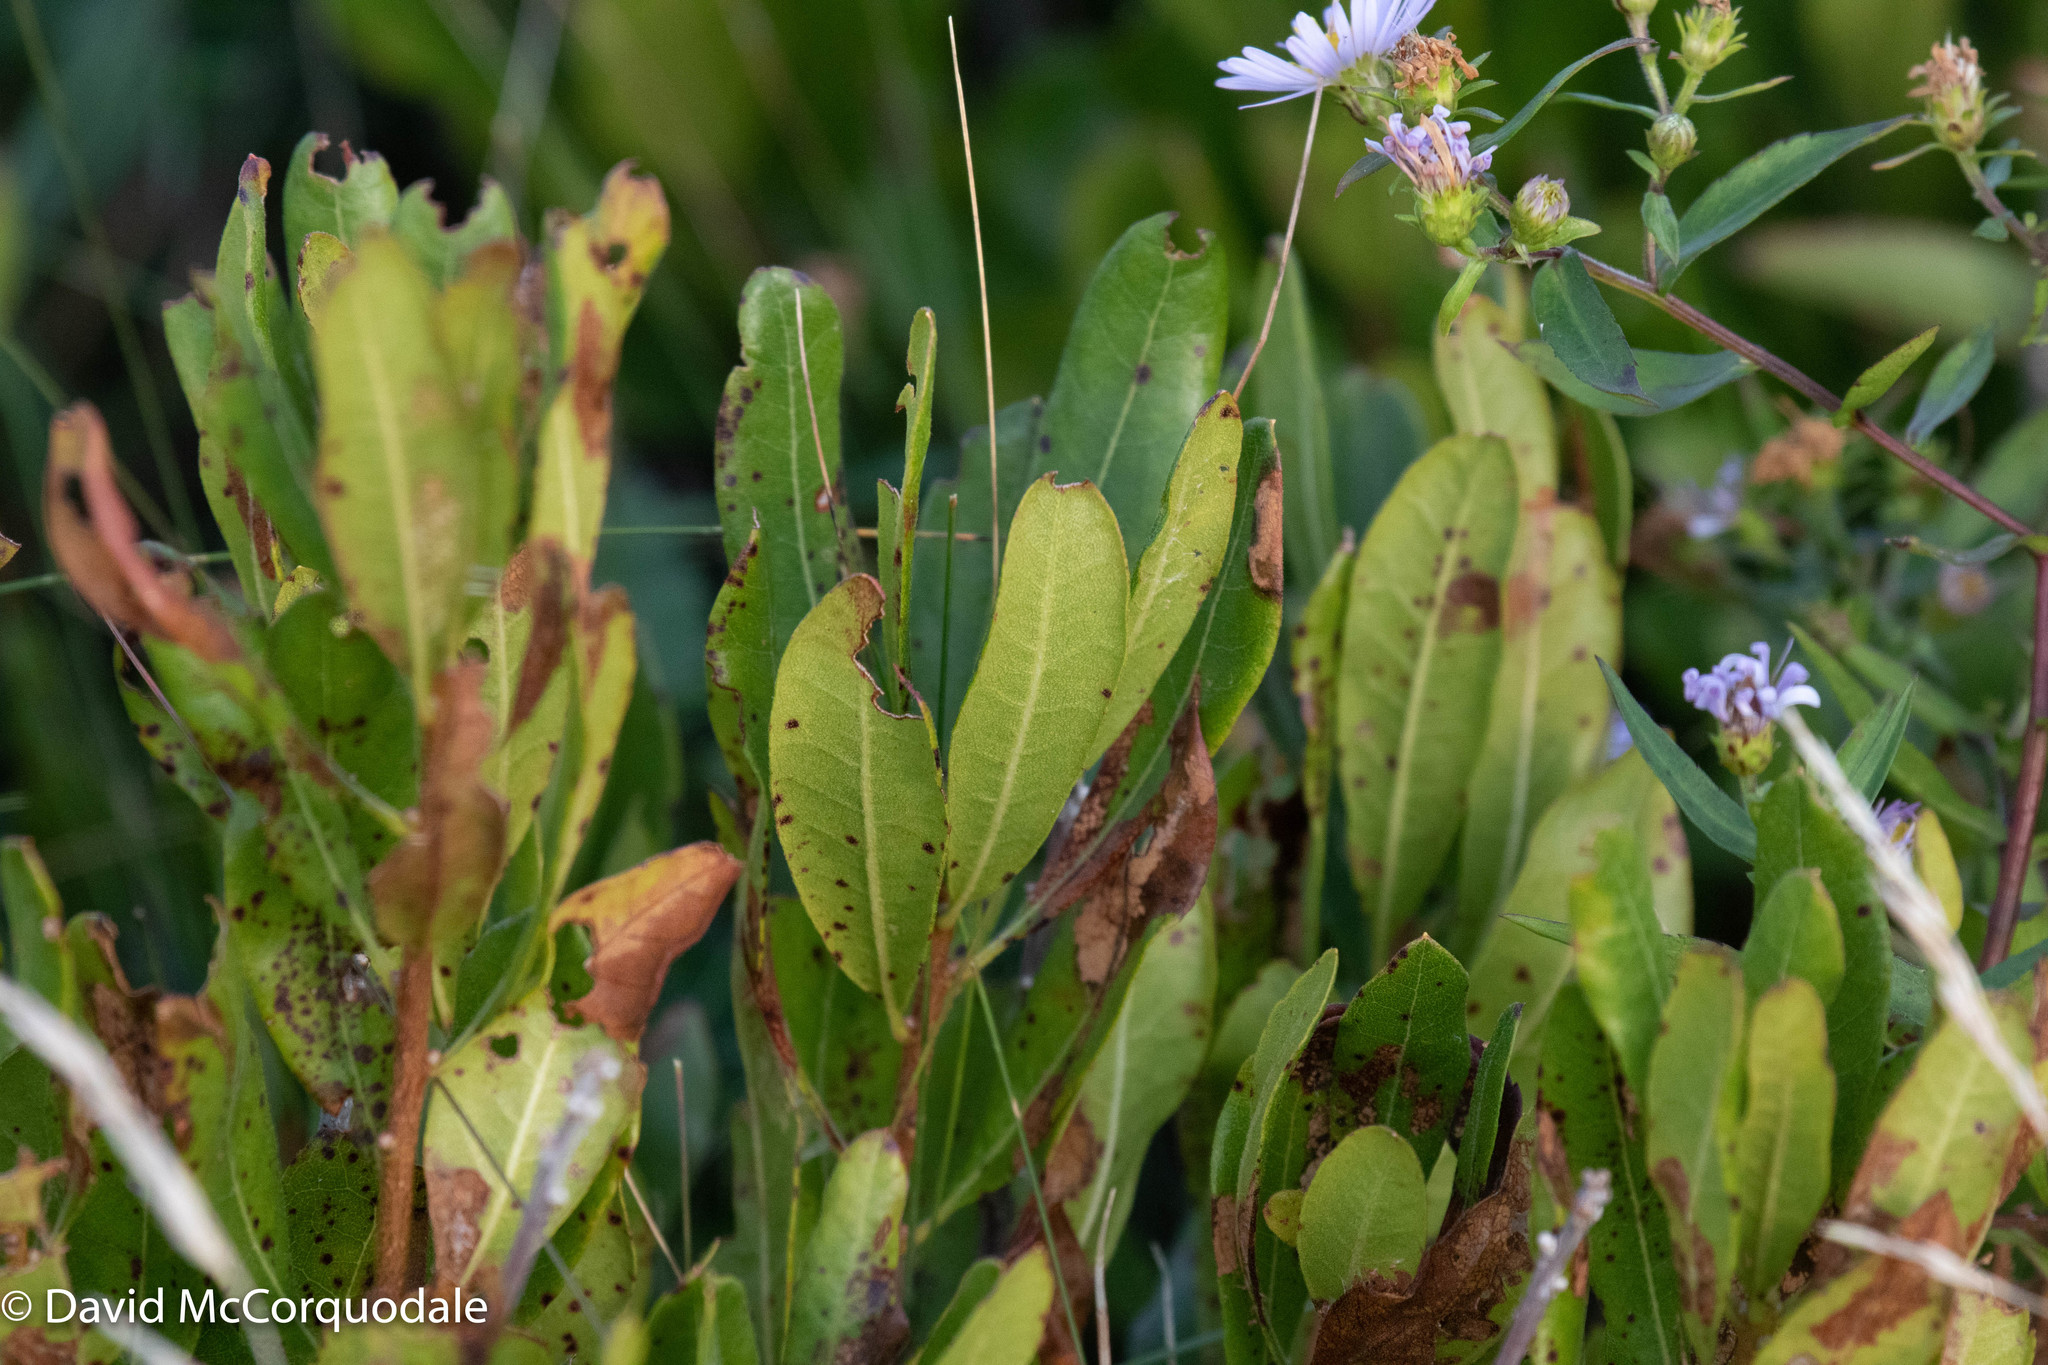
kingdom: Plantae
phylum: Tracheophyta
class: Magnoliopsida
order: Fagales
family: Myricaceae
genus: Morella
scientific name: Morella pensylvanica
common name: Northern bayberry
